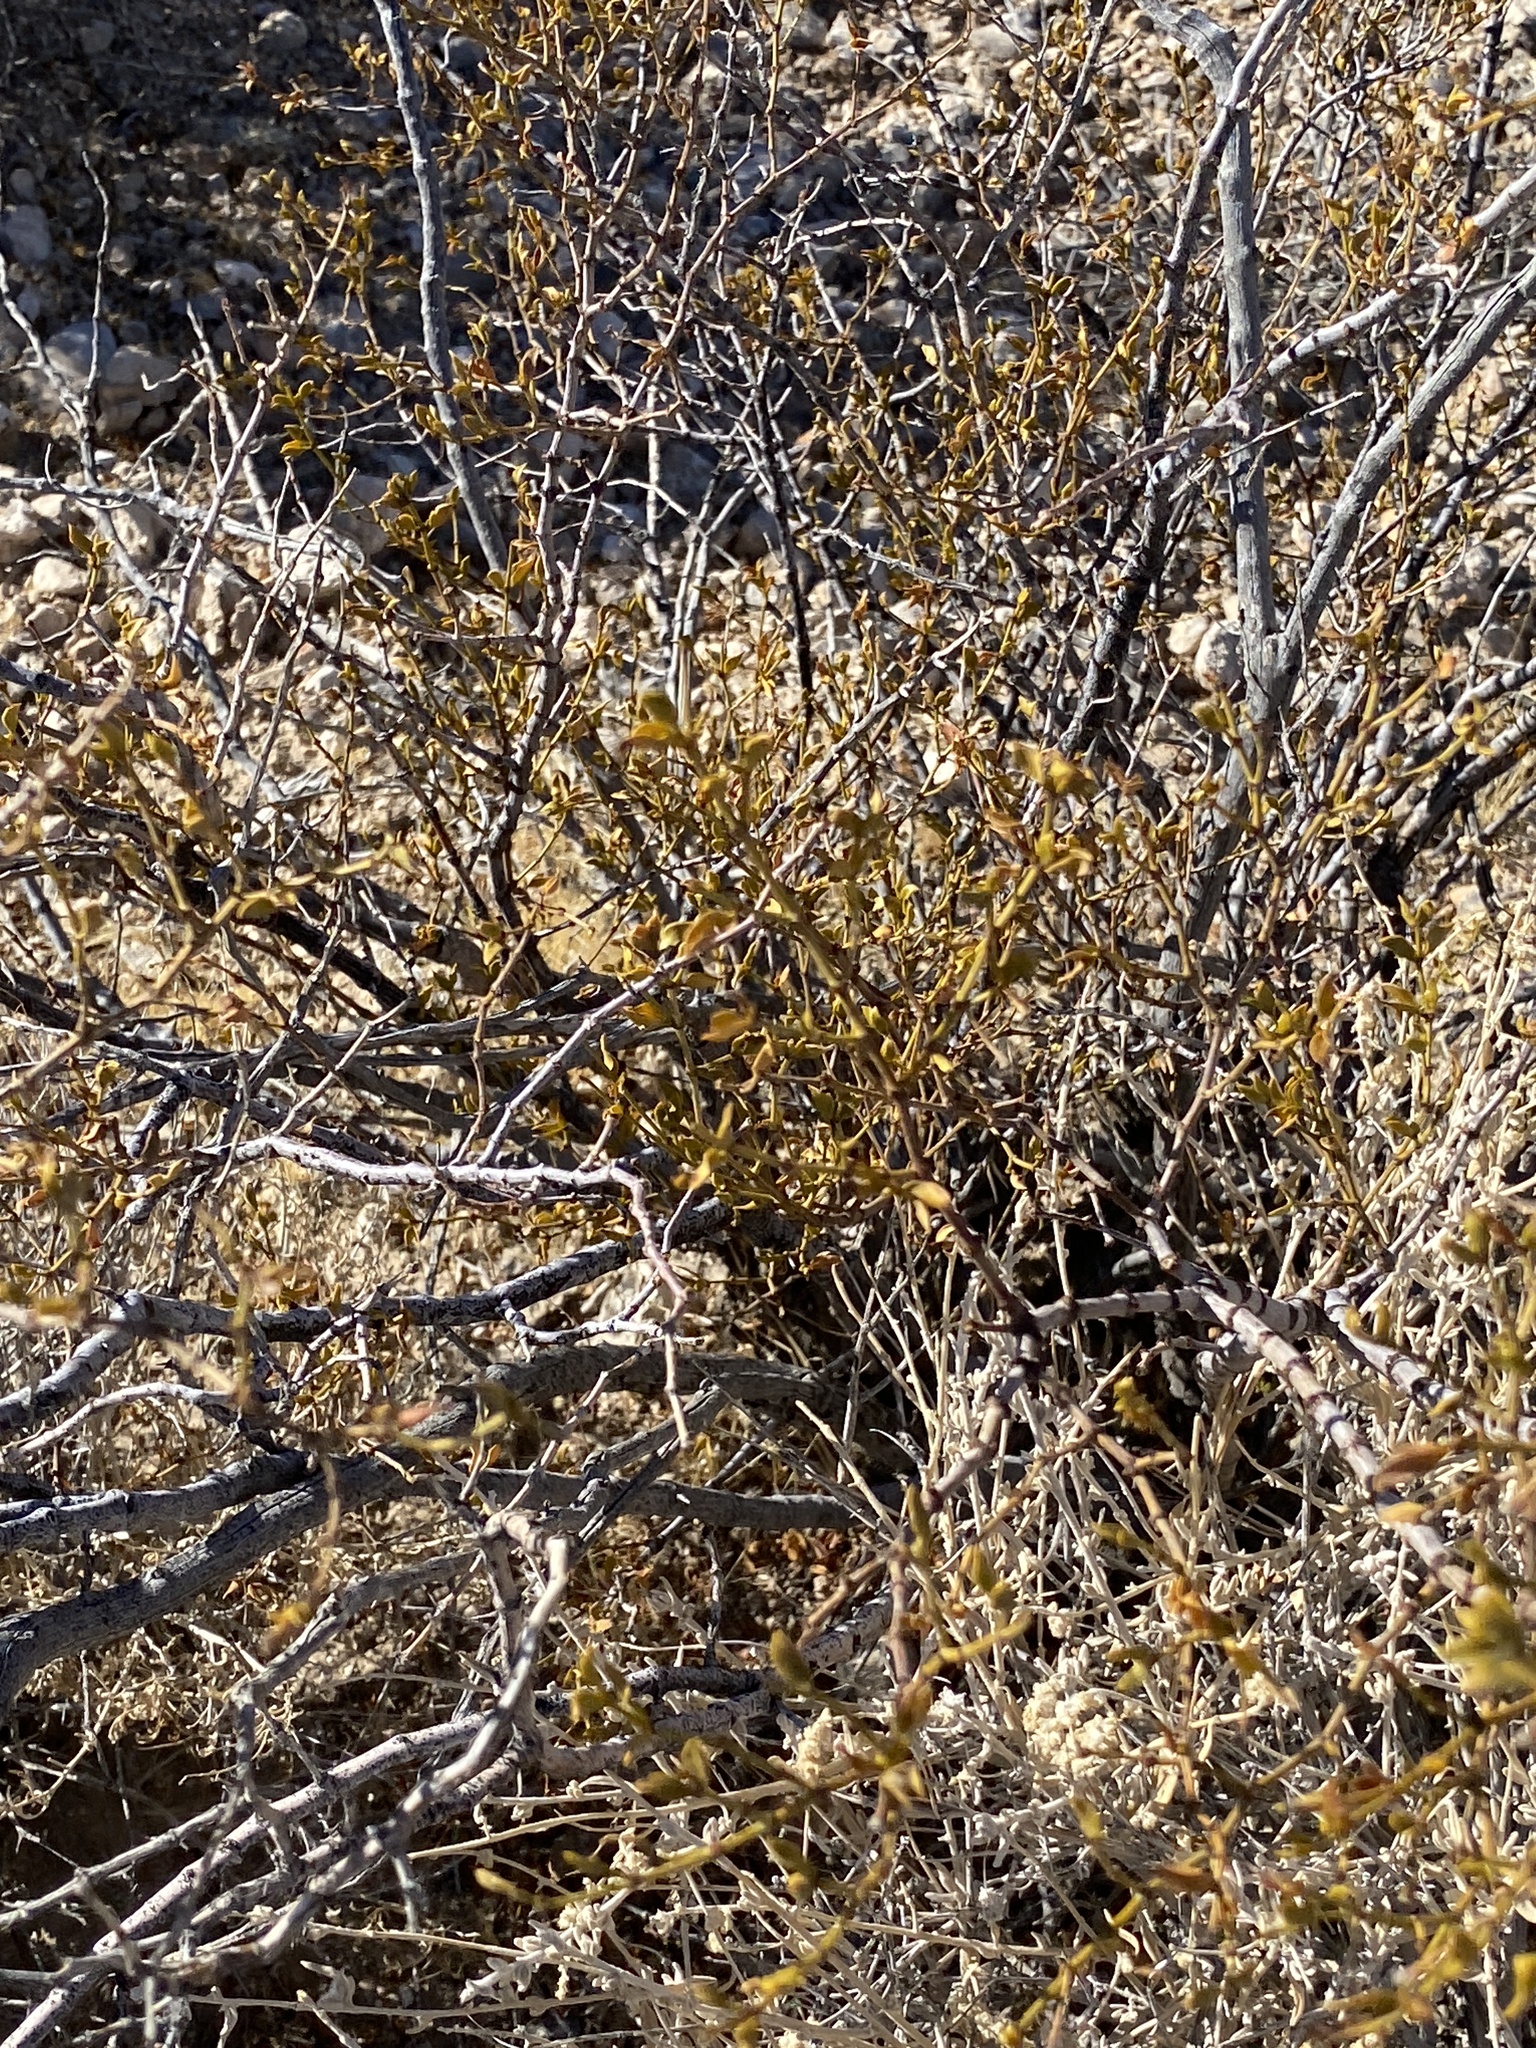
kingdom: Plantae
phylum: Tracheophyta
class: Magnoliopsida
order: Zygophyllales
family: Zygophyllaceae
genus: Larrea
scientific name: Larrea tridentata
